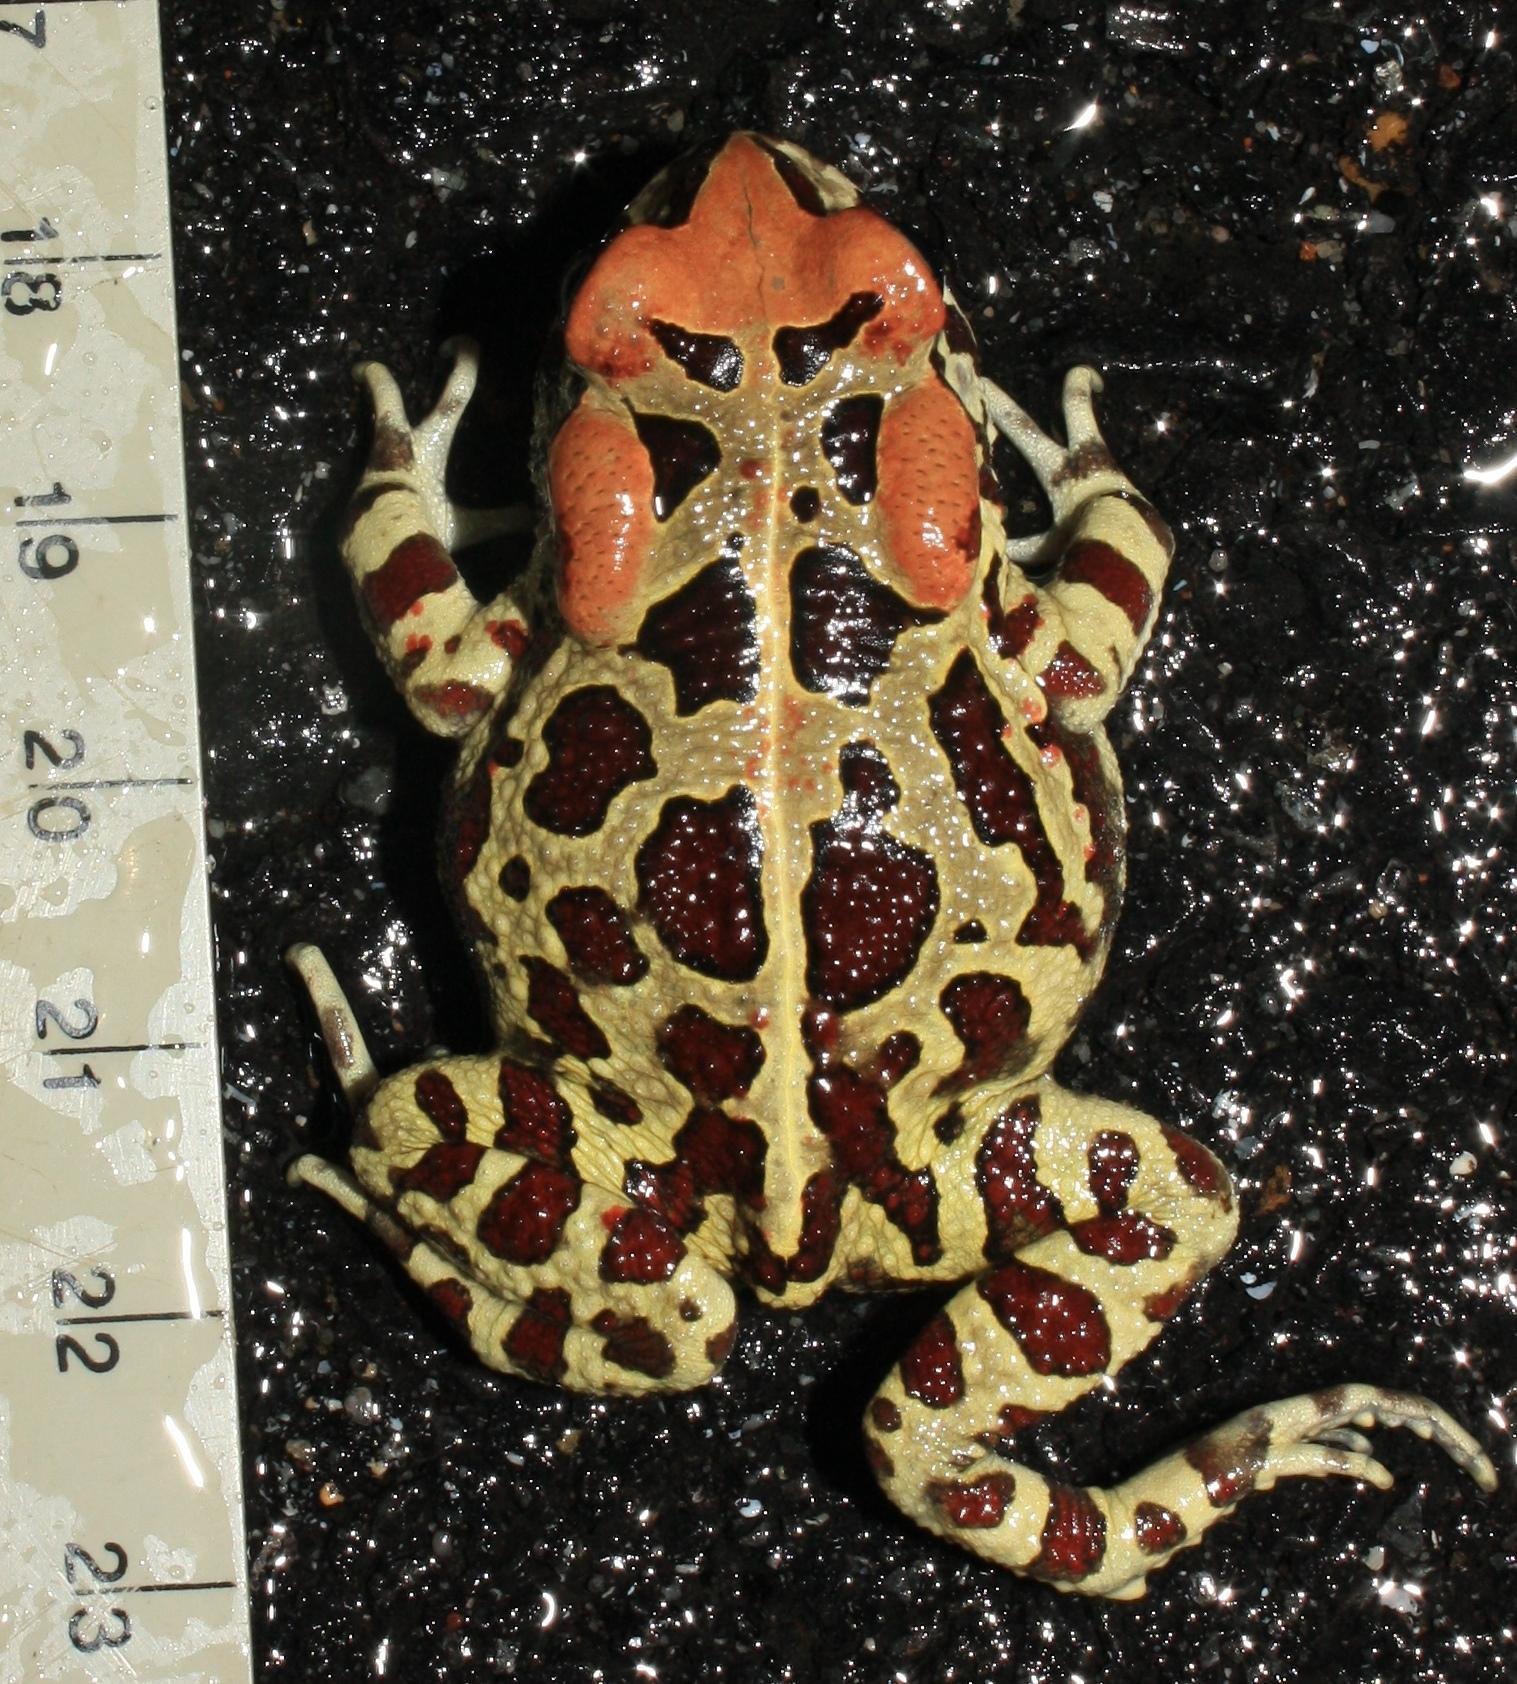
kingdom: Animalia
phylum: Chordata
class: Amphibia
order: Anura
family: Bufonidae
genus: Sclerophrys
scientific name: Sclerophrys pantherina
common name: Panther toad
